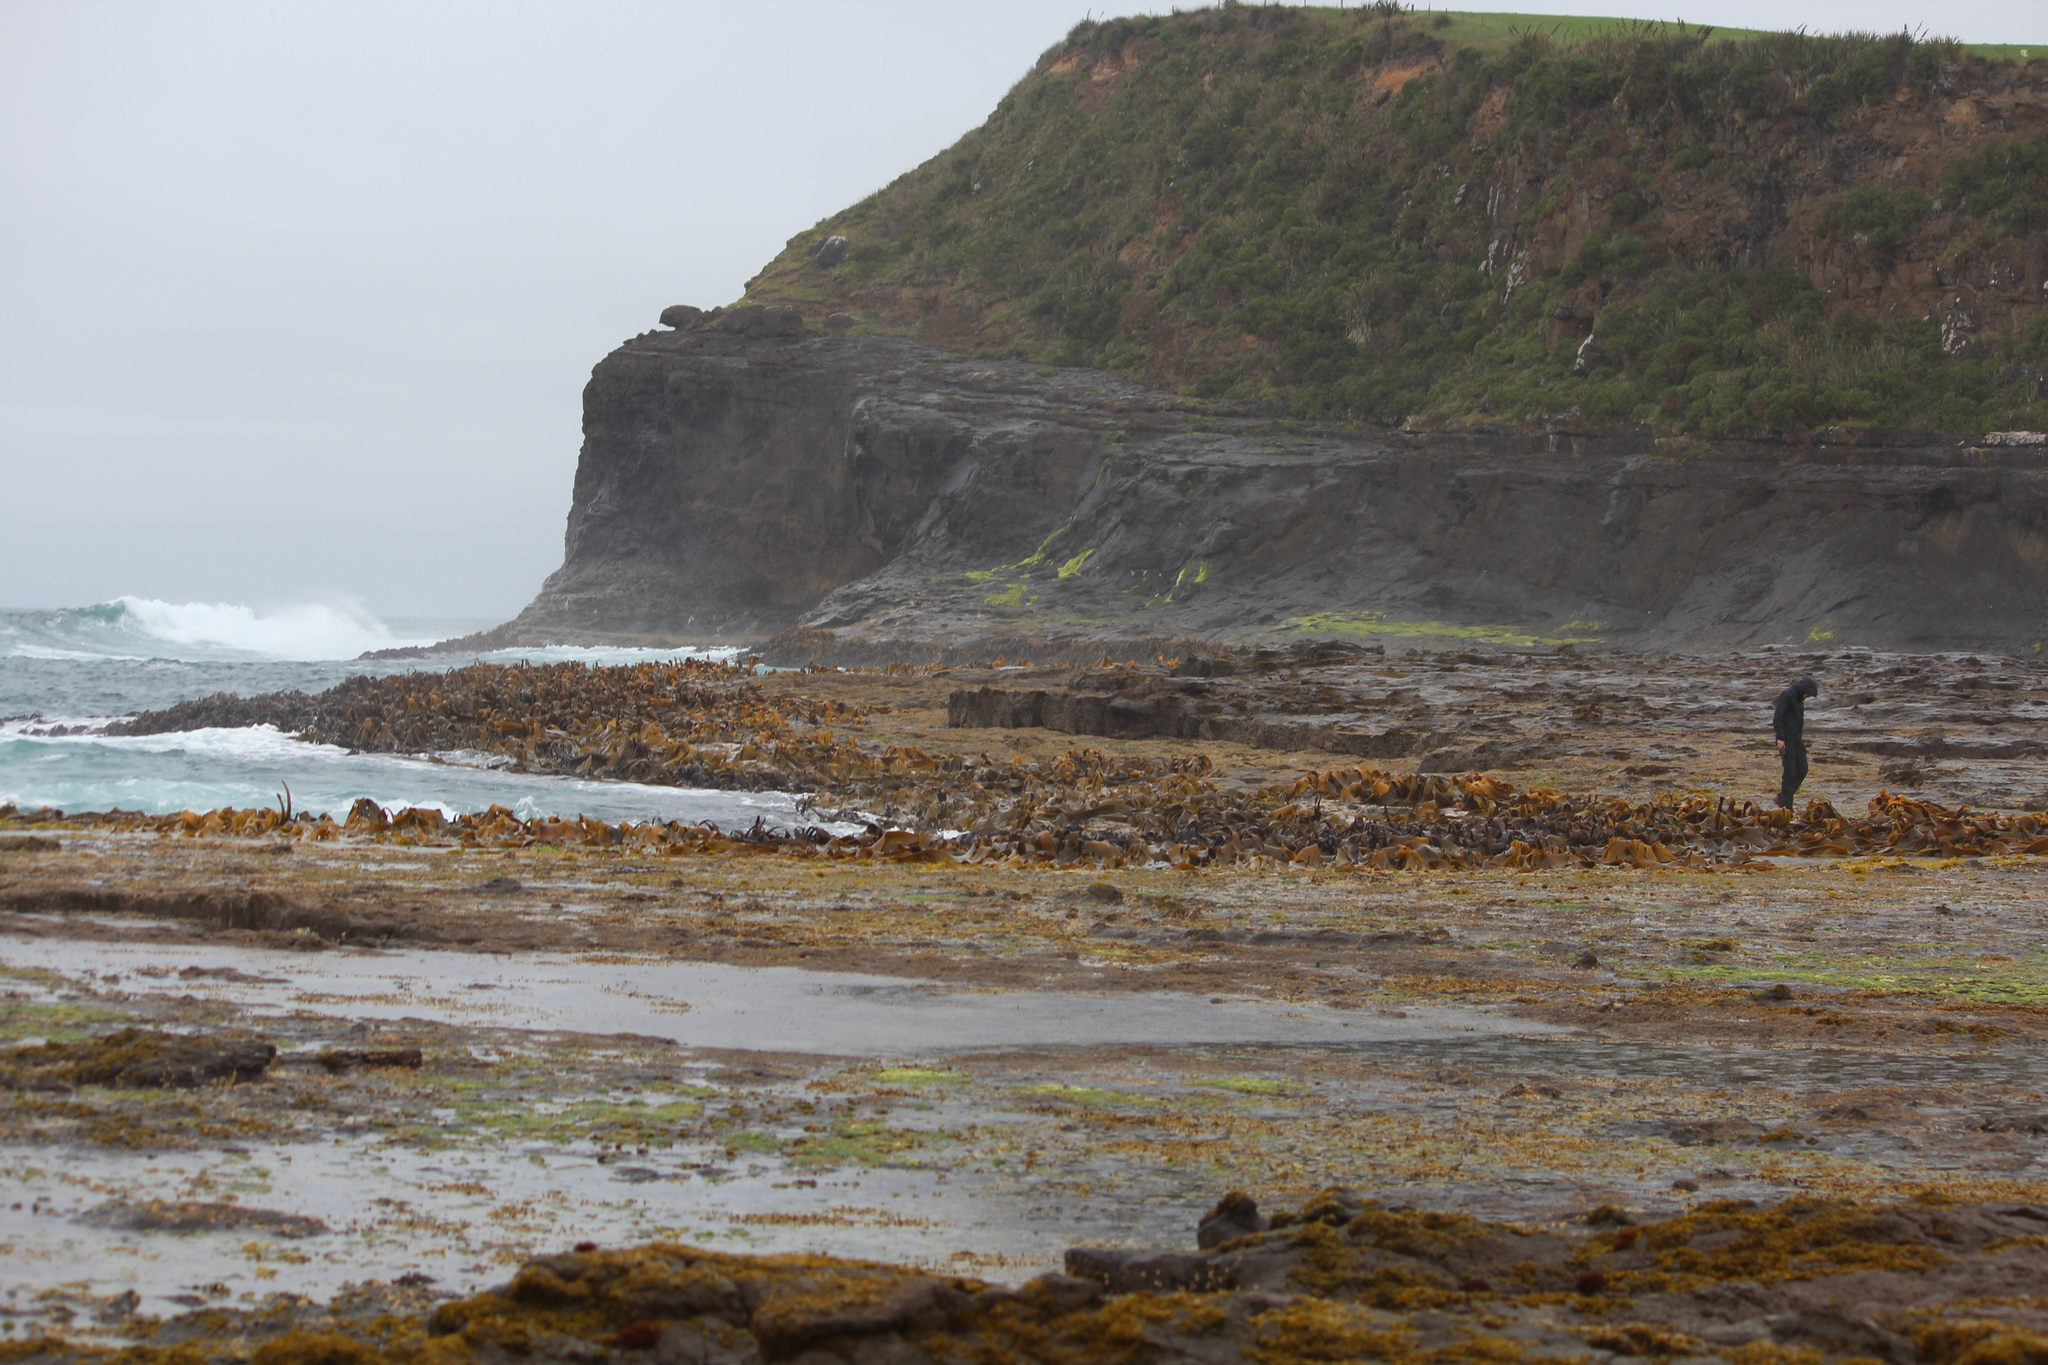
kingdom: Chromista
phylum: Ochrophyta
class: Phaeophyceae
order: Fucales
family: Durvillaeaceae
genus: Durvillaea
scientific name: Durvillaea willana
